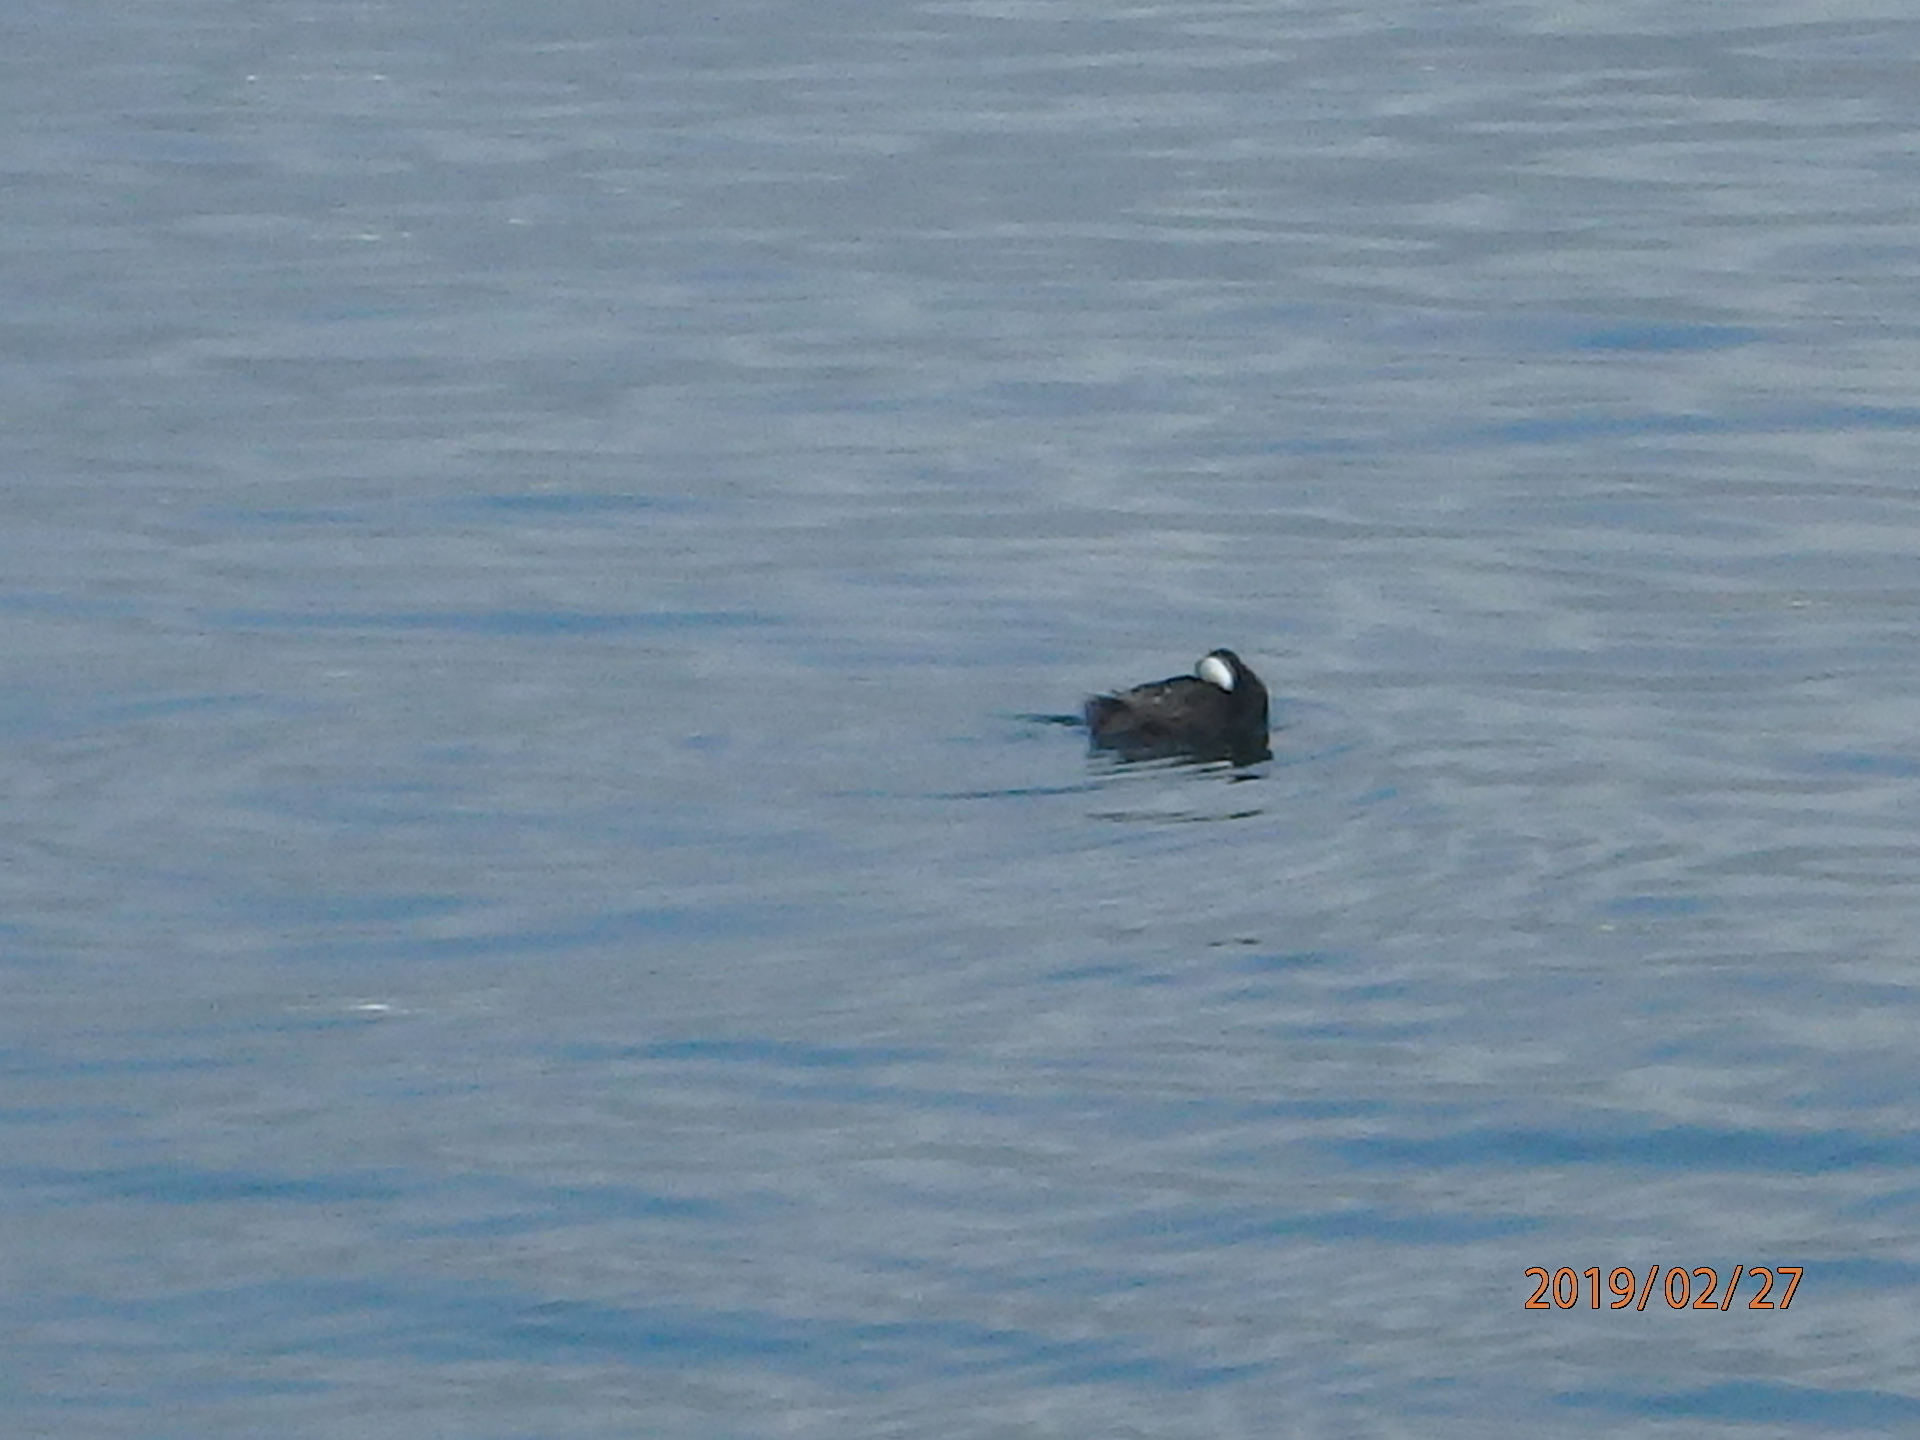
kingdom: Animalia
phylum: Chordata
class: Aves
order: Anseriformes
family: Anatidae
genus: Melanitta
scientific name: Melanitta perspicillata
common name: Surf scoter
